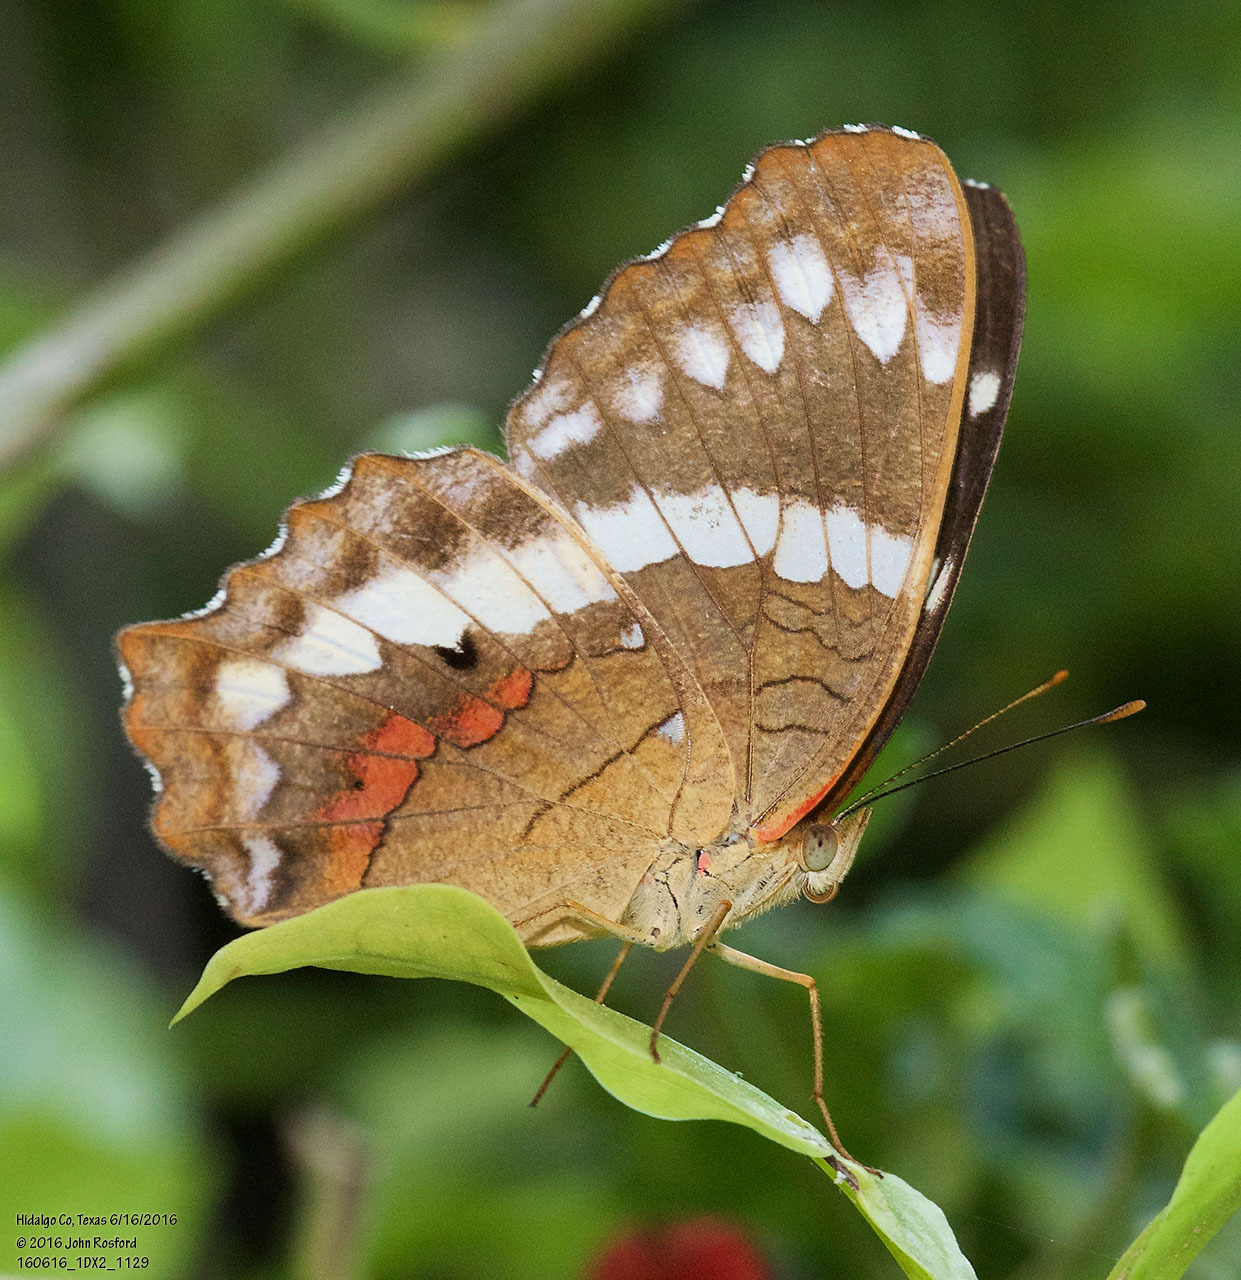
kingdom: Animalia
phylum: Arthropoda
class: Insecta
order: Lepidoptera
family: Nymphalidae
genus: Anartia
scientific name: Anartia fatima
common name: Banded peacock
